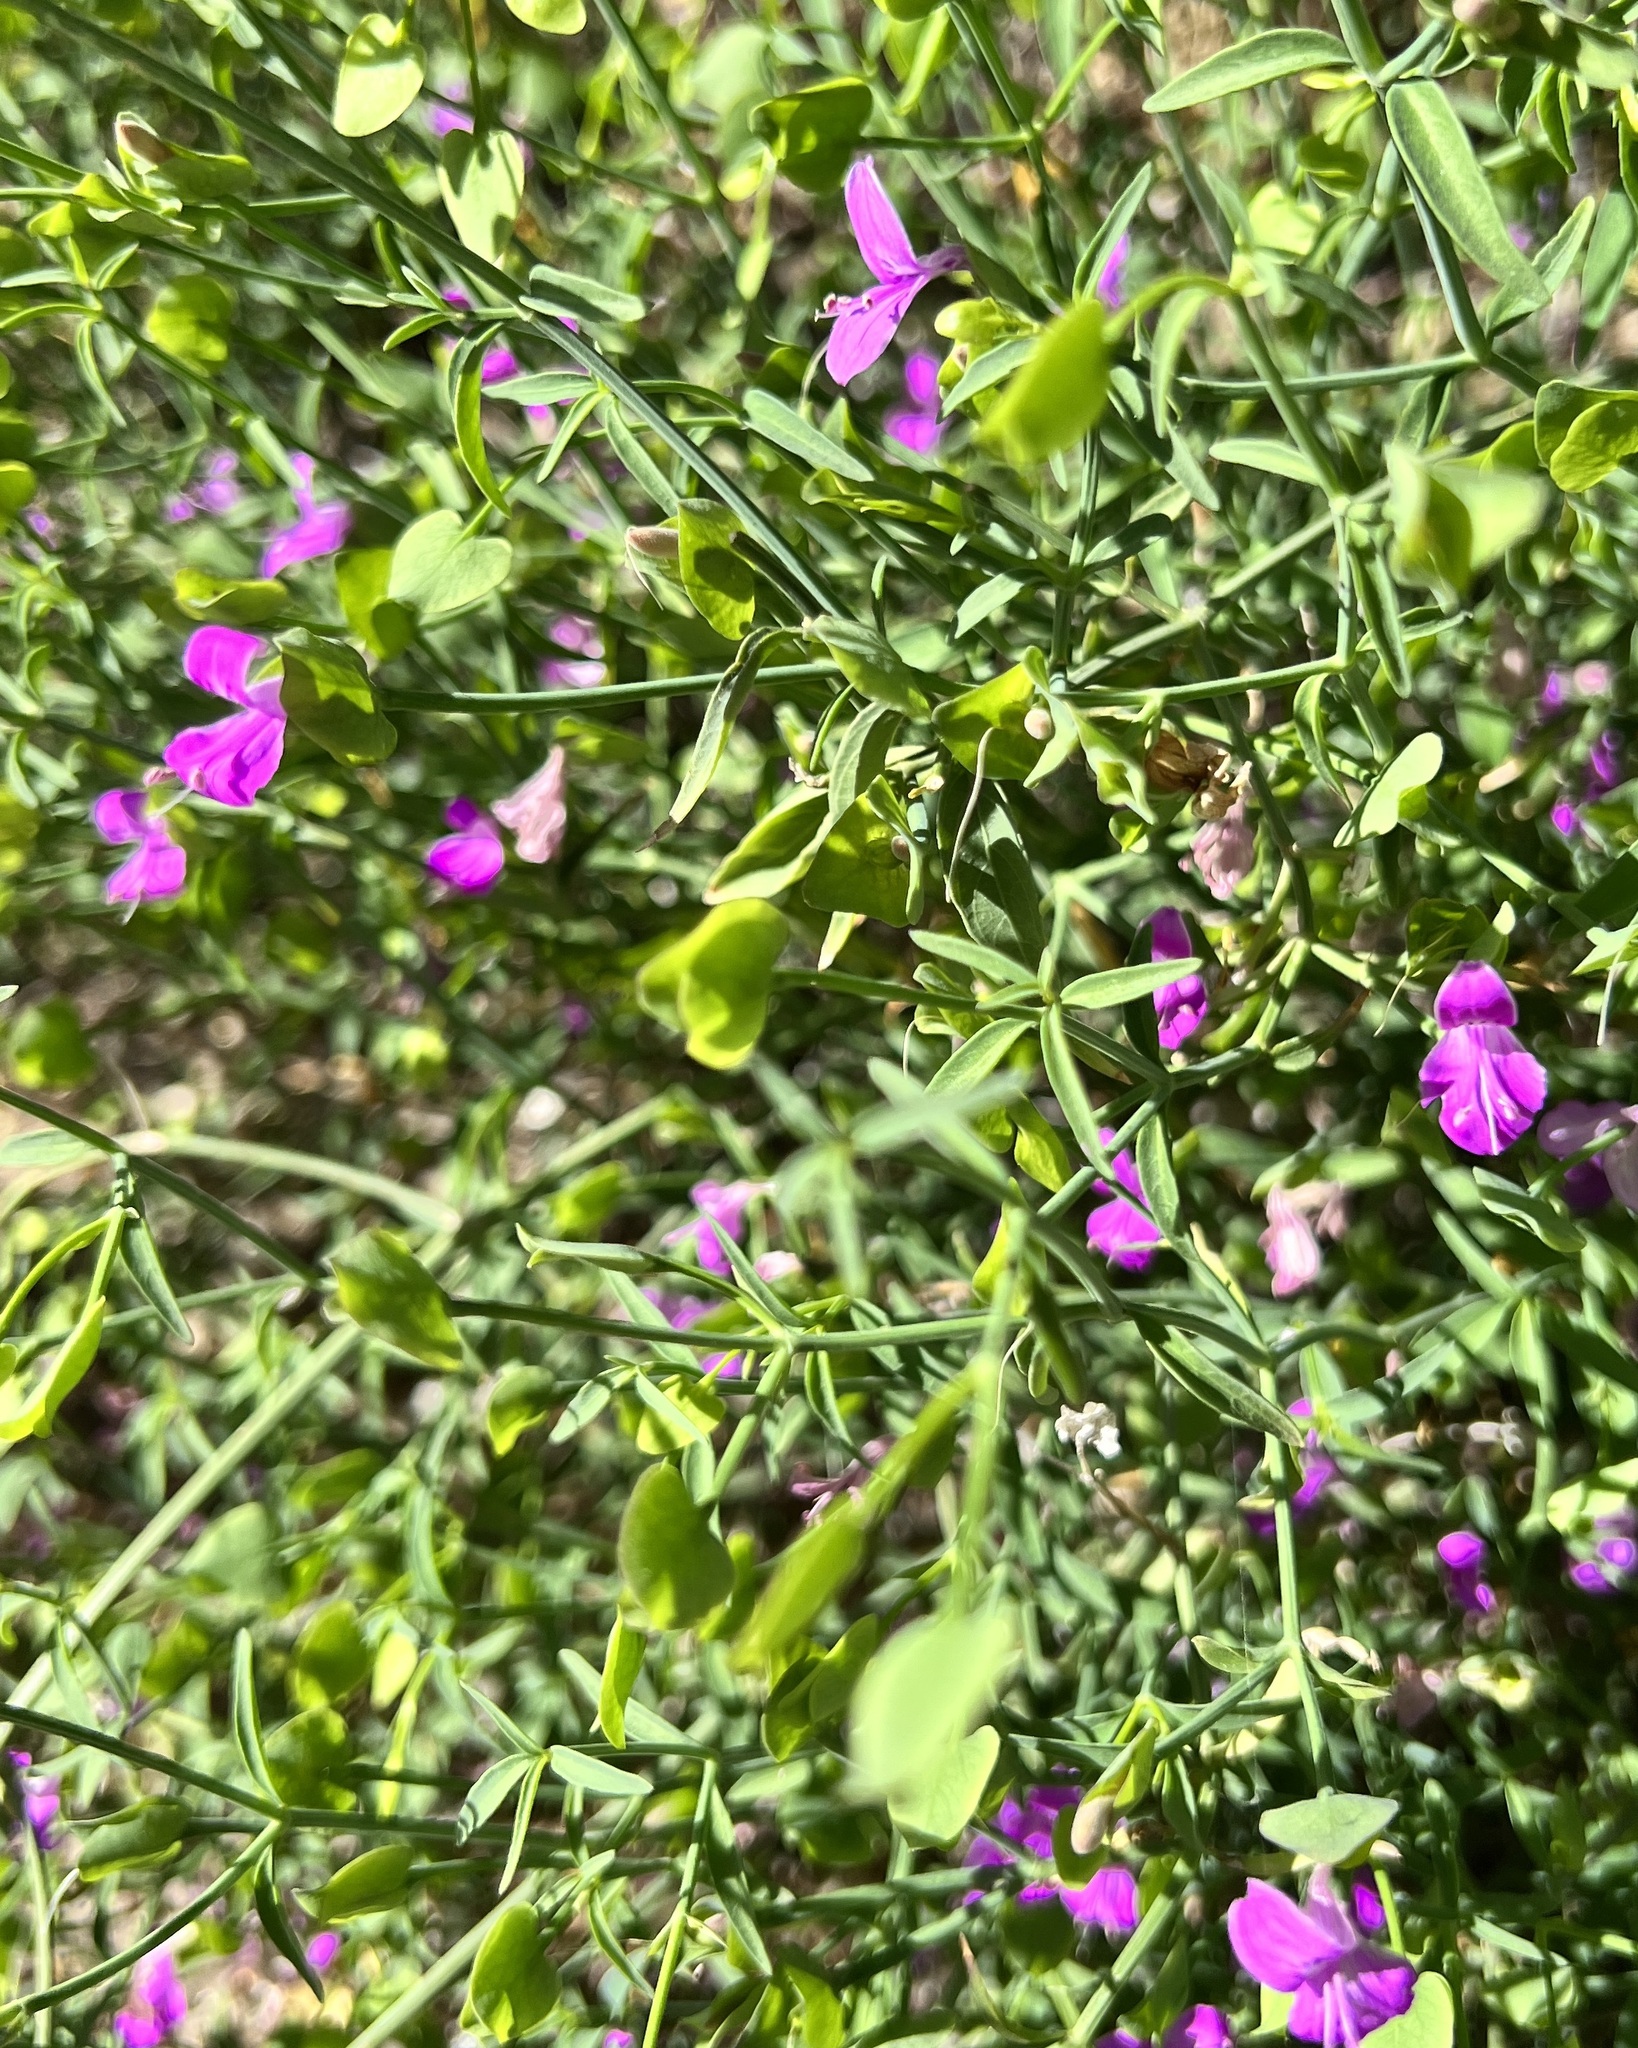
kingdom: Plantae
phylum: Tracheophyta
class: Magnoliopsida
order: Lamiales
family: Acanthaceae
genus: Dicliptera
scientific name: Dicliptera resupinata
